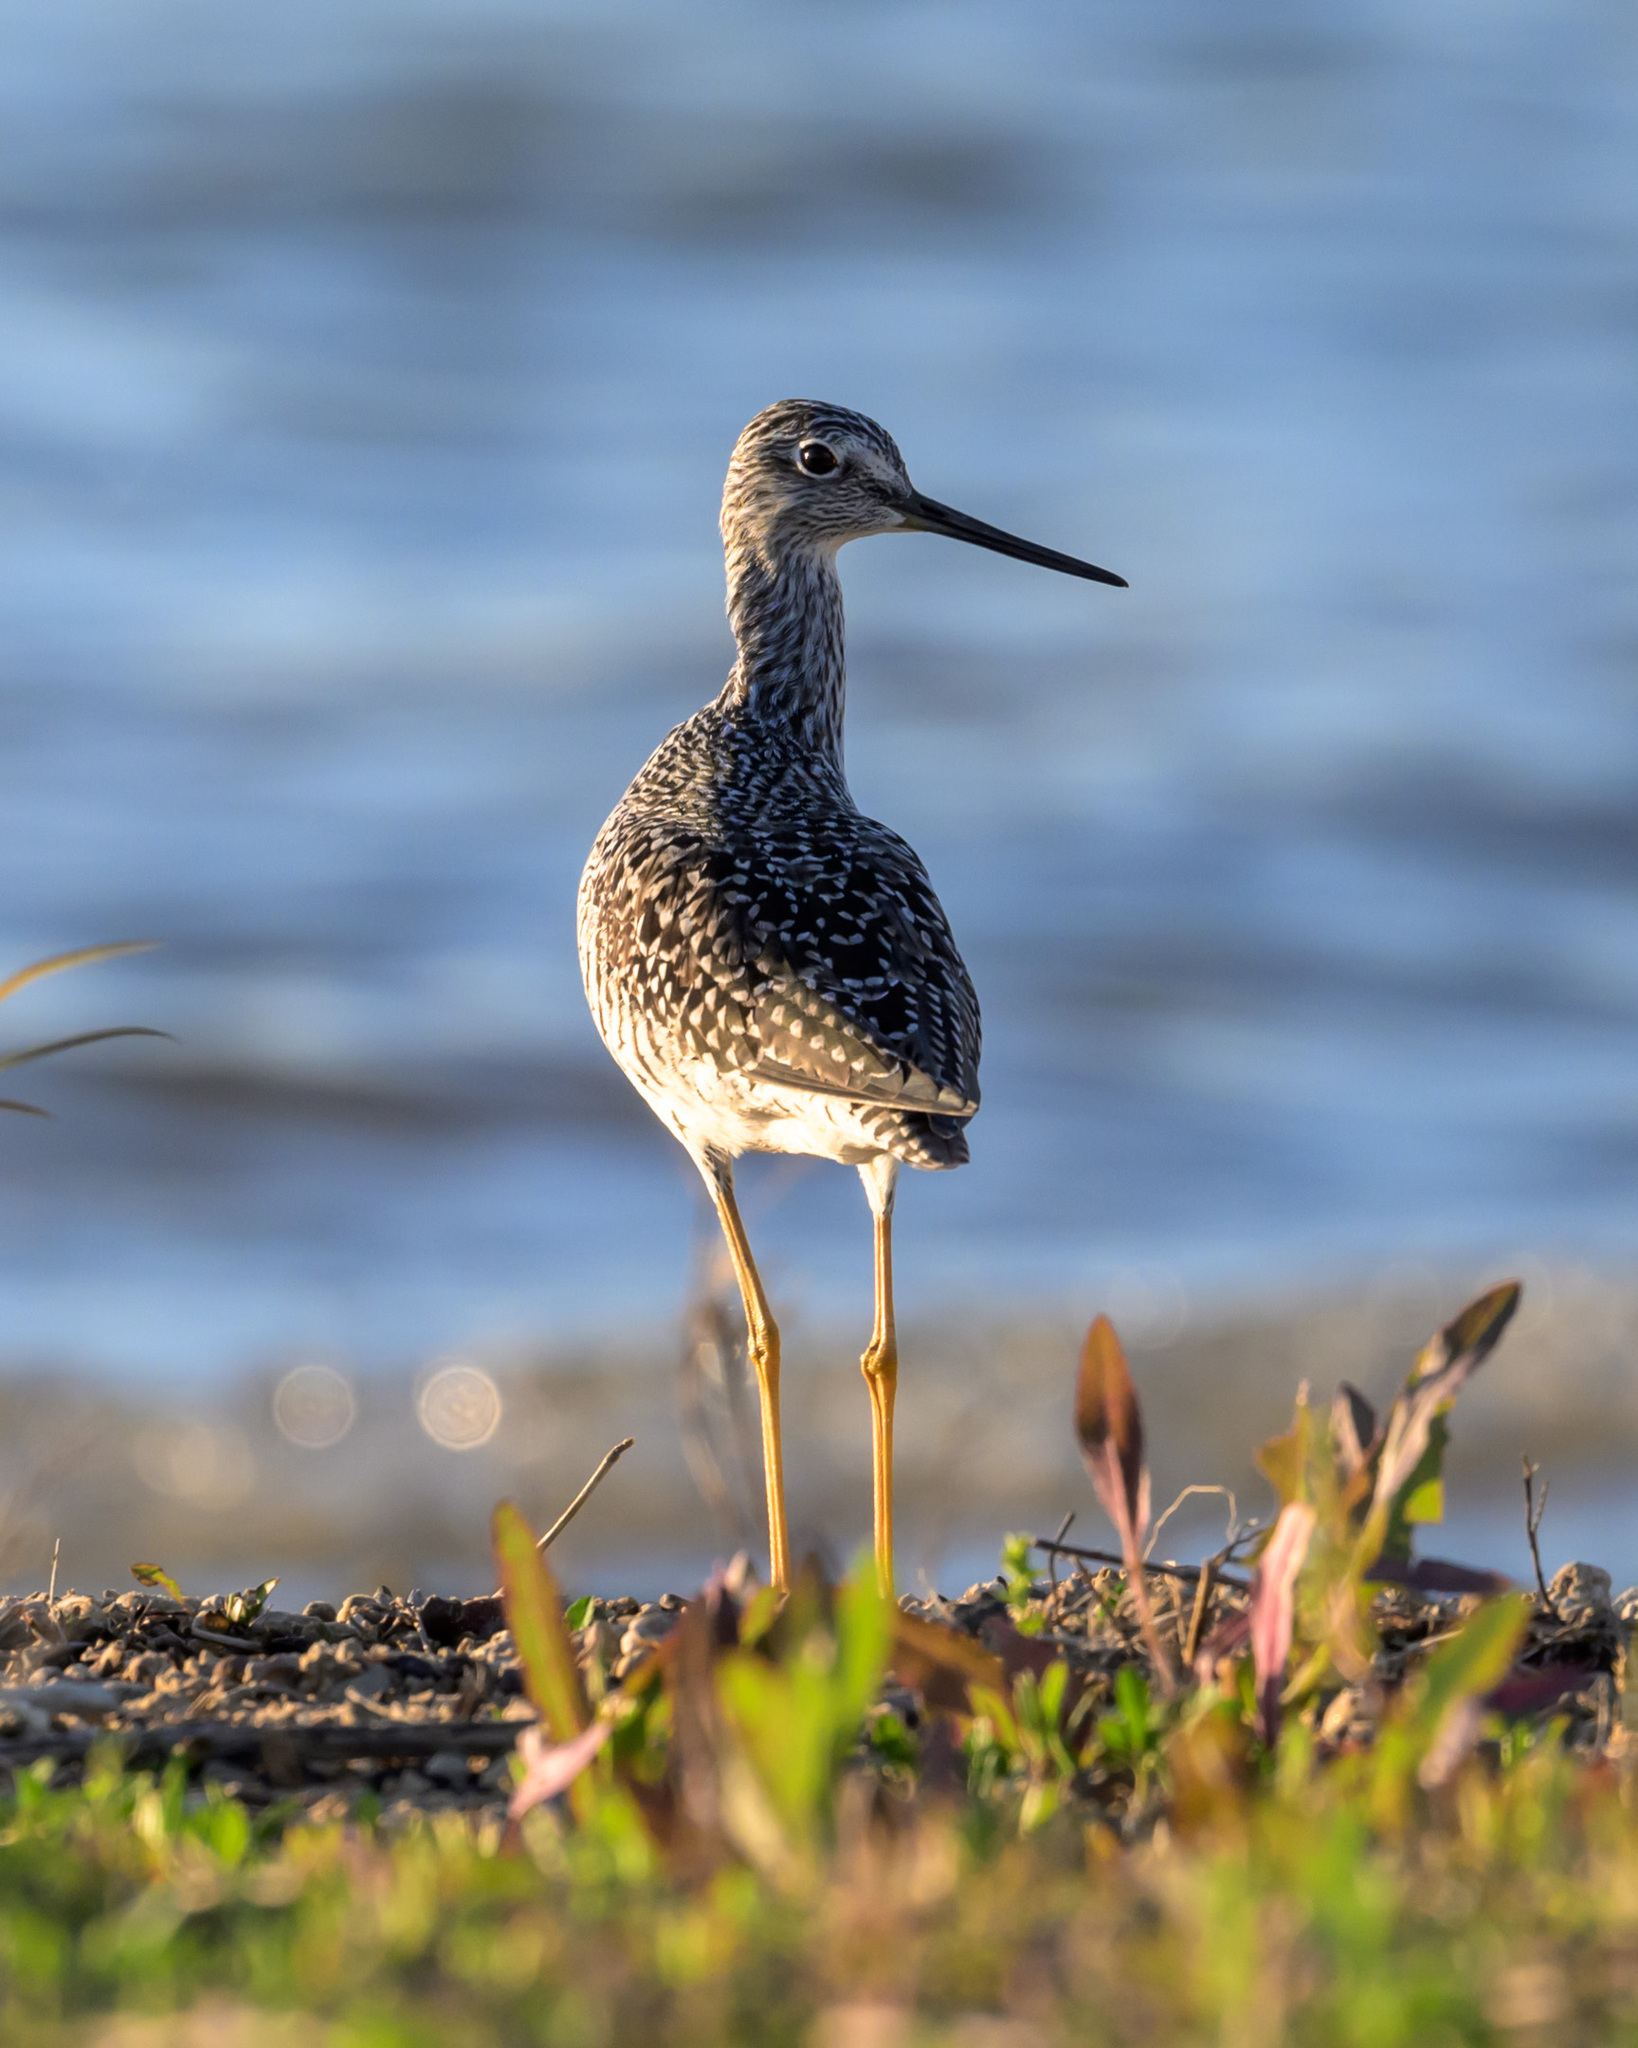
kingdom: Animalia
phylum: Chordata
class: Aves
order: Charadriiformes
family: Scolopacidae
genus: Tringa
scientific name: Tringa melanoleuca
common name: Greater yellowlegs
